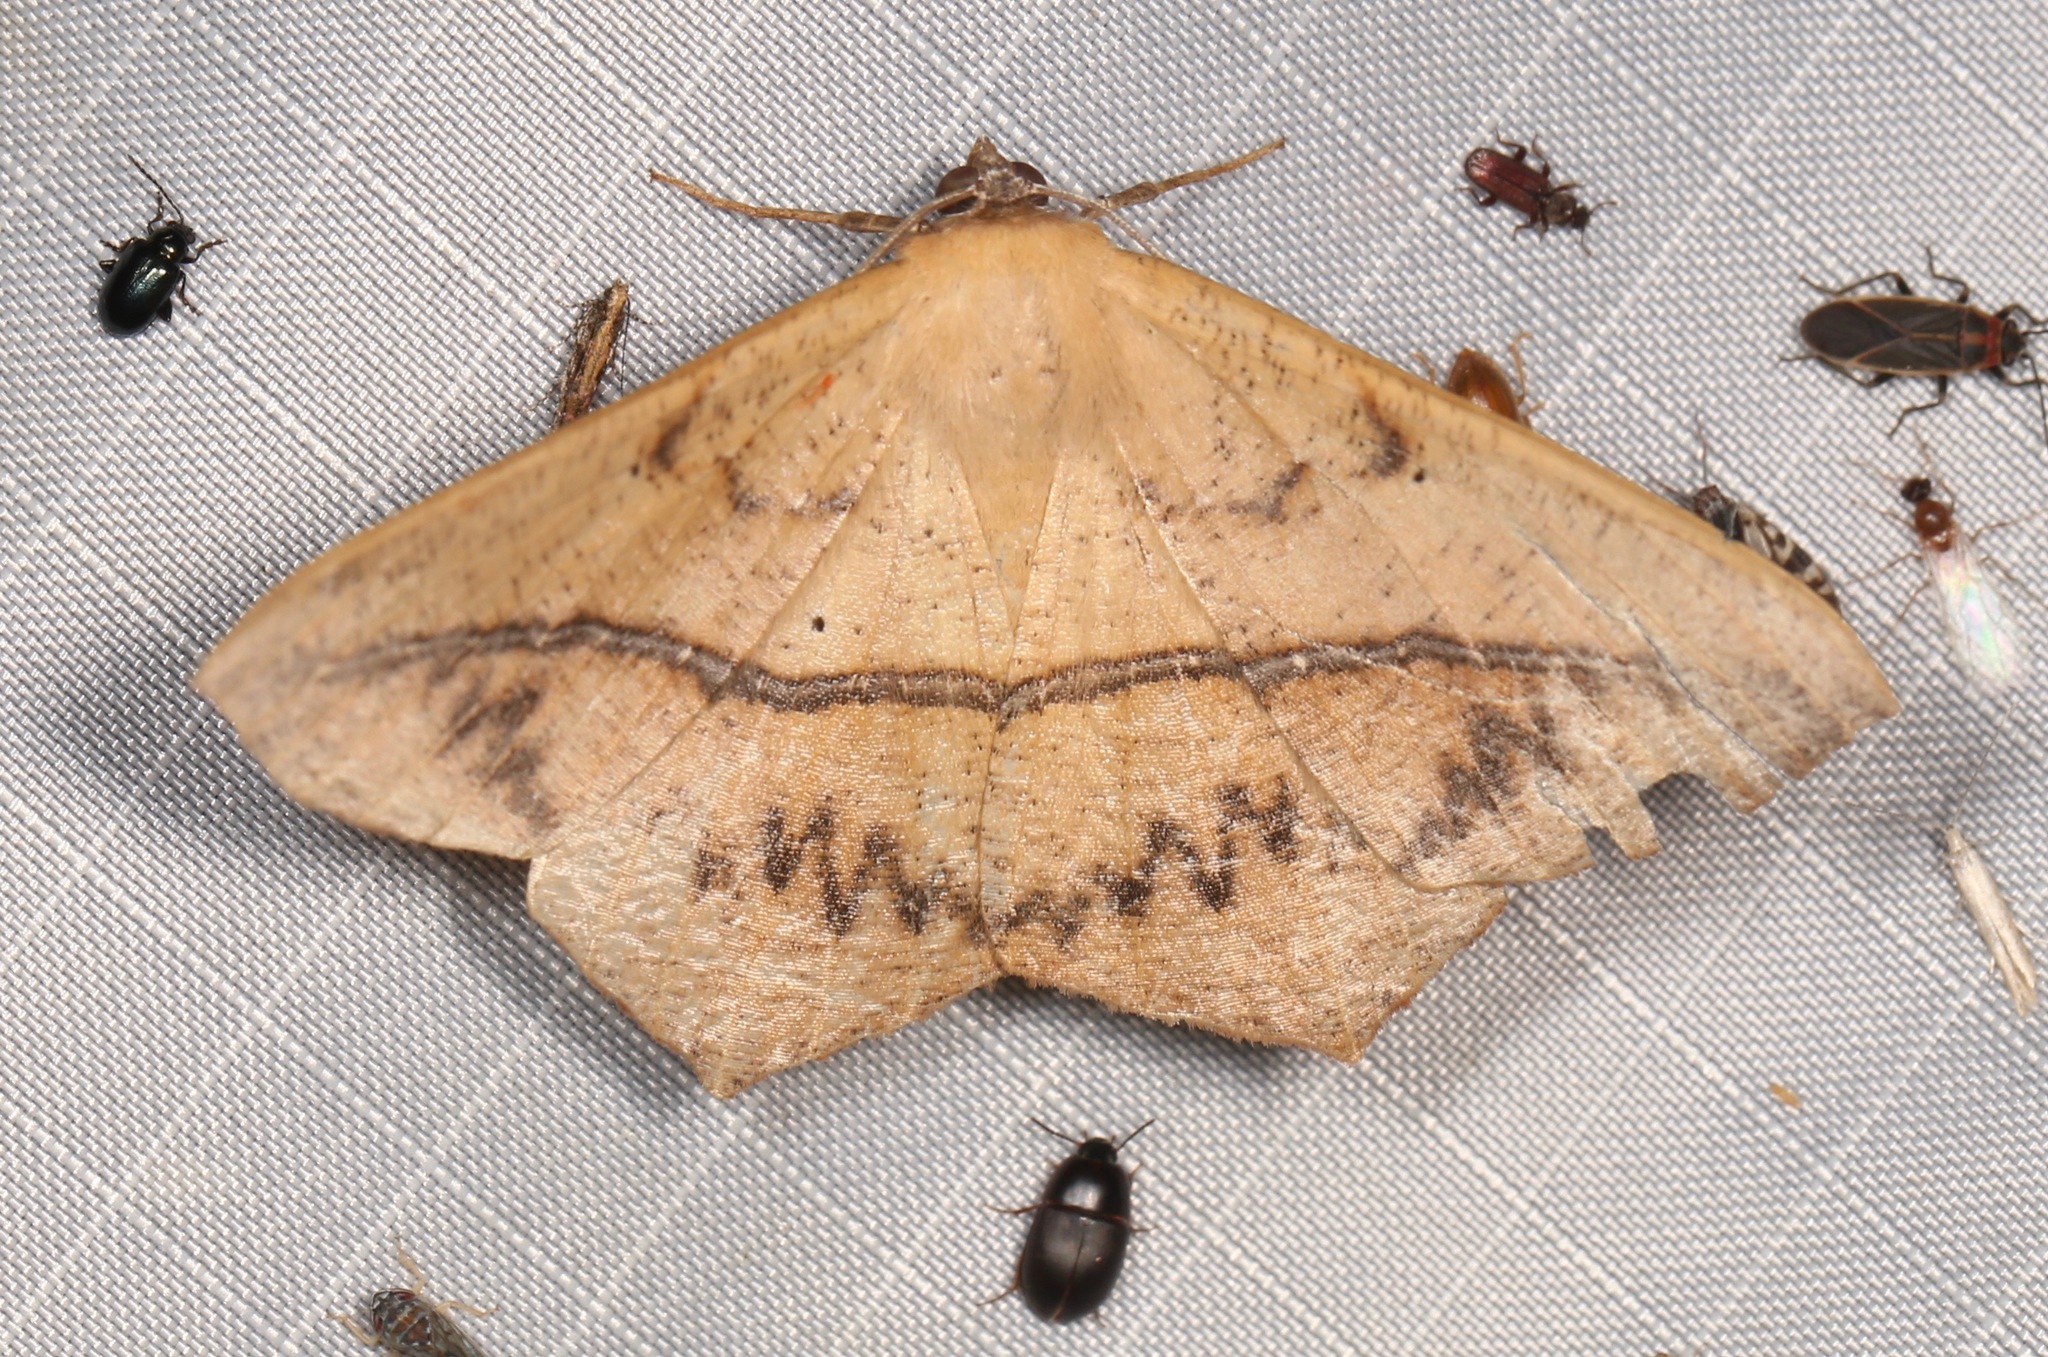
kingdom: Animalia
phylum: Arthropoda
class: Insecta
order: Lepidoptera
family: Geometridae
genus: Prochoerodes
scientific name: Prochoerodes lineola
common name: Large maple spanworm
